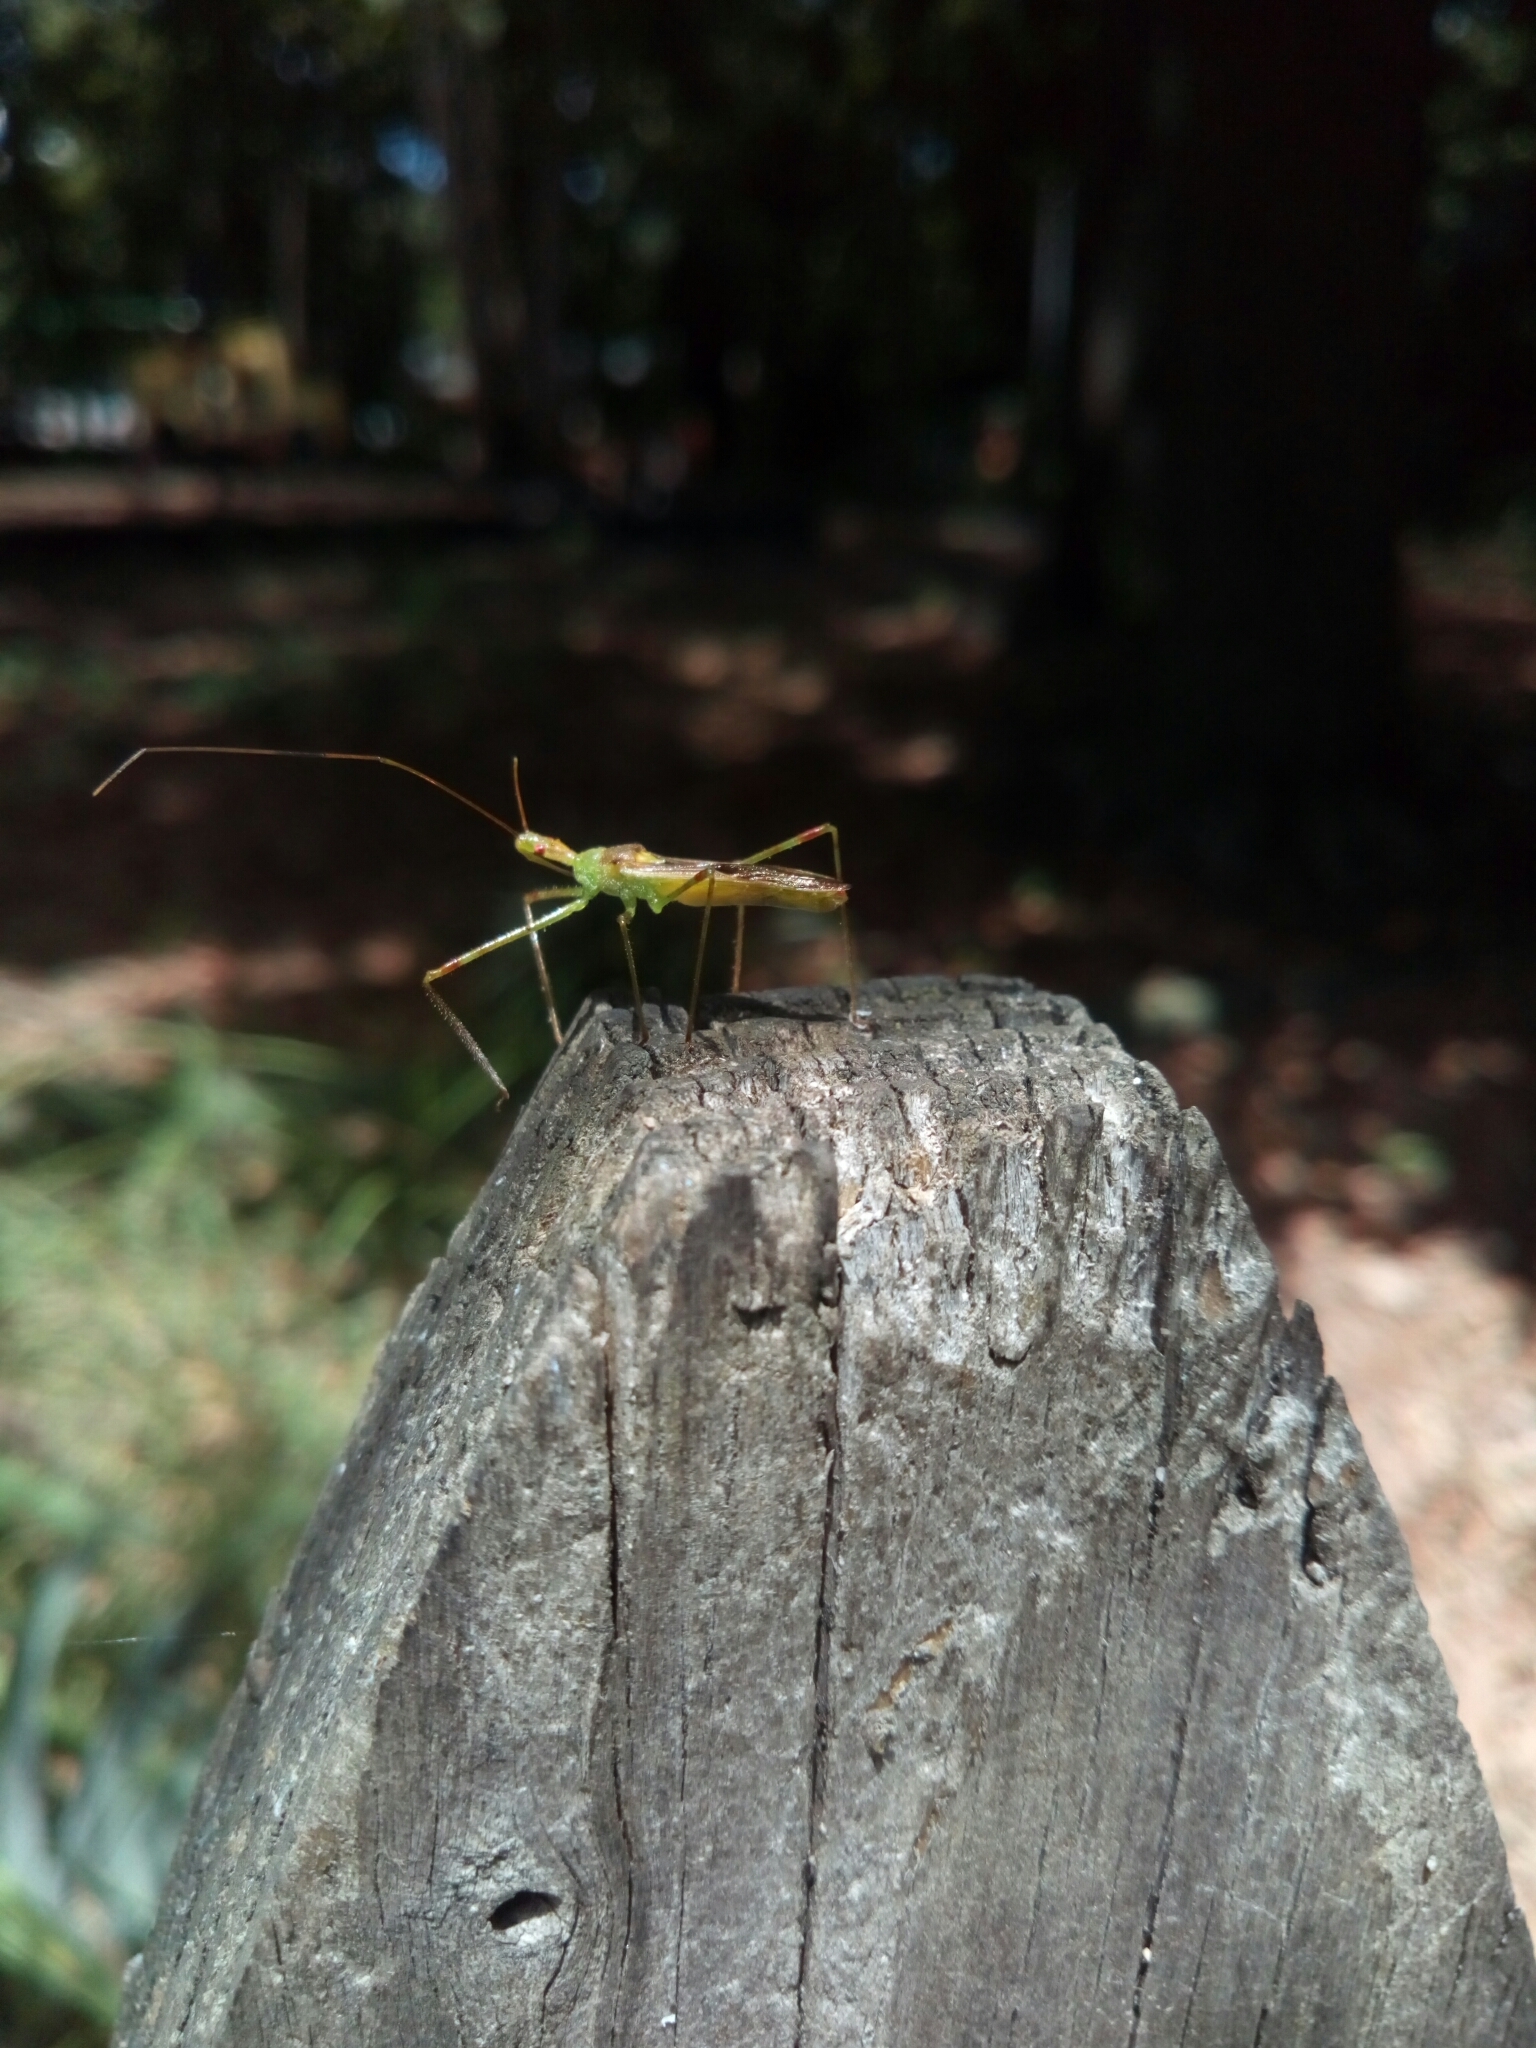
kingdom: Animalia
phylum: Arthropoda
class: Insecta
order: Hemiptera
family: Reduviidae
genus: Zelus
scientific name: Zelus luridus
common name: Pale green assassin bug
